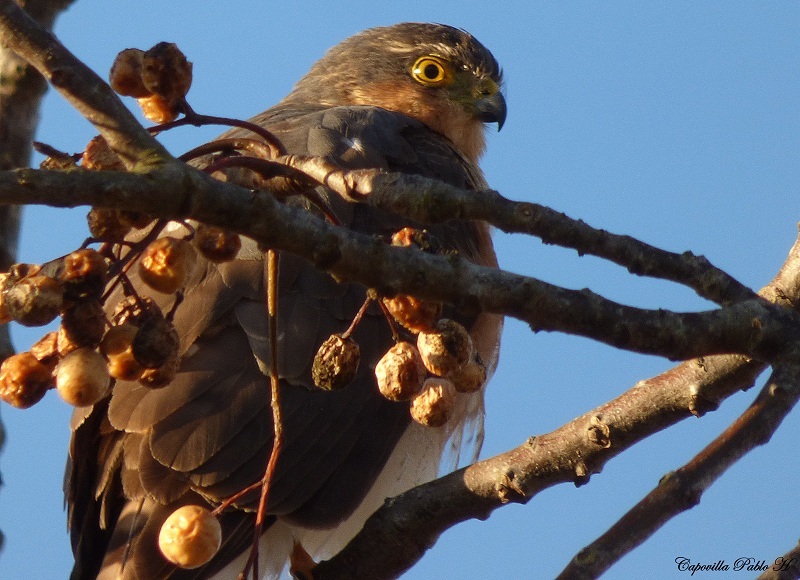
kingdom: Animalia
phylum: Chordata
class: Aves
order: Accipitriformes
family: Accipitridae
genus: Accipiter
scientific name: Accipiter striatus
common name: Sharp-shinned hawk
